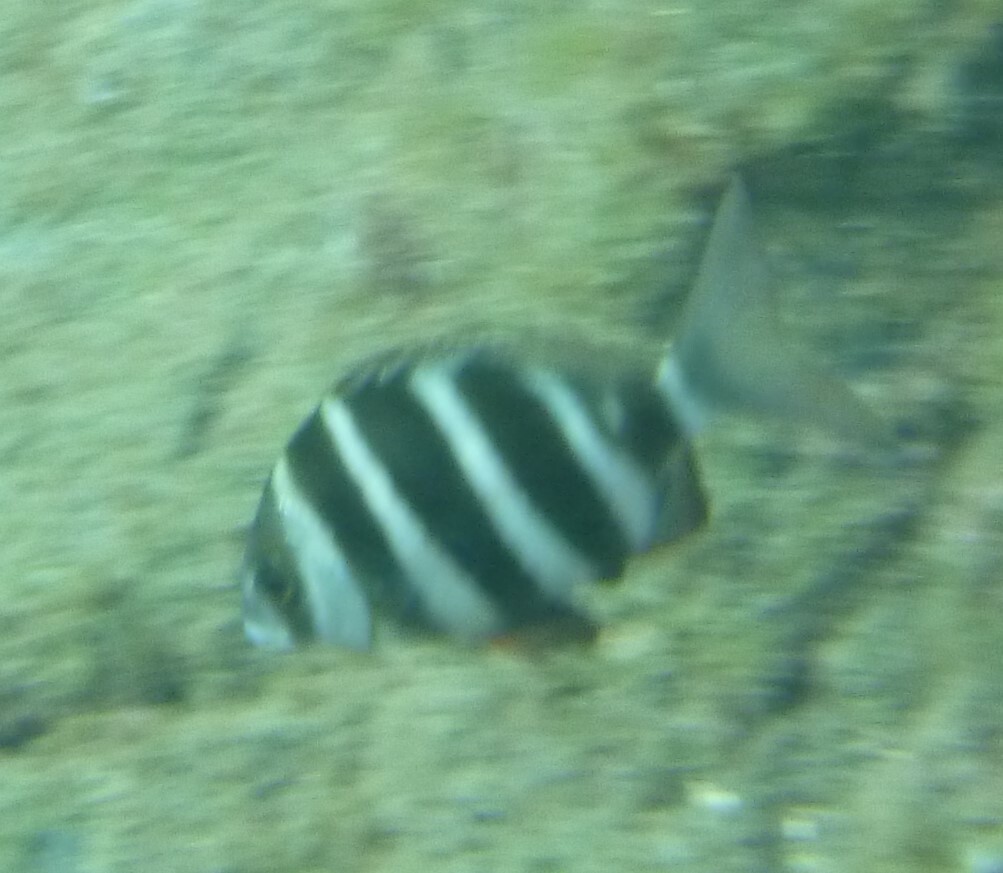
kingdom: Animalia
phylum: Chordata
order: Perciformes
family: Sparidae
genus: Diplodus
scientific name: Diplodus cervinus
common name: Oman porgy
